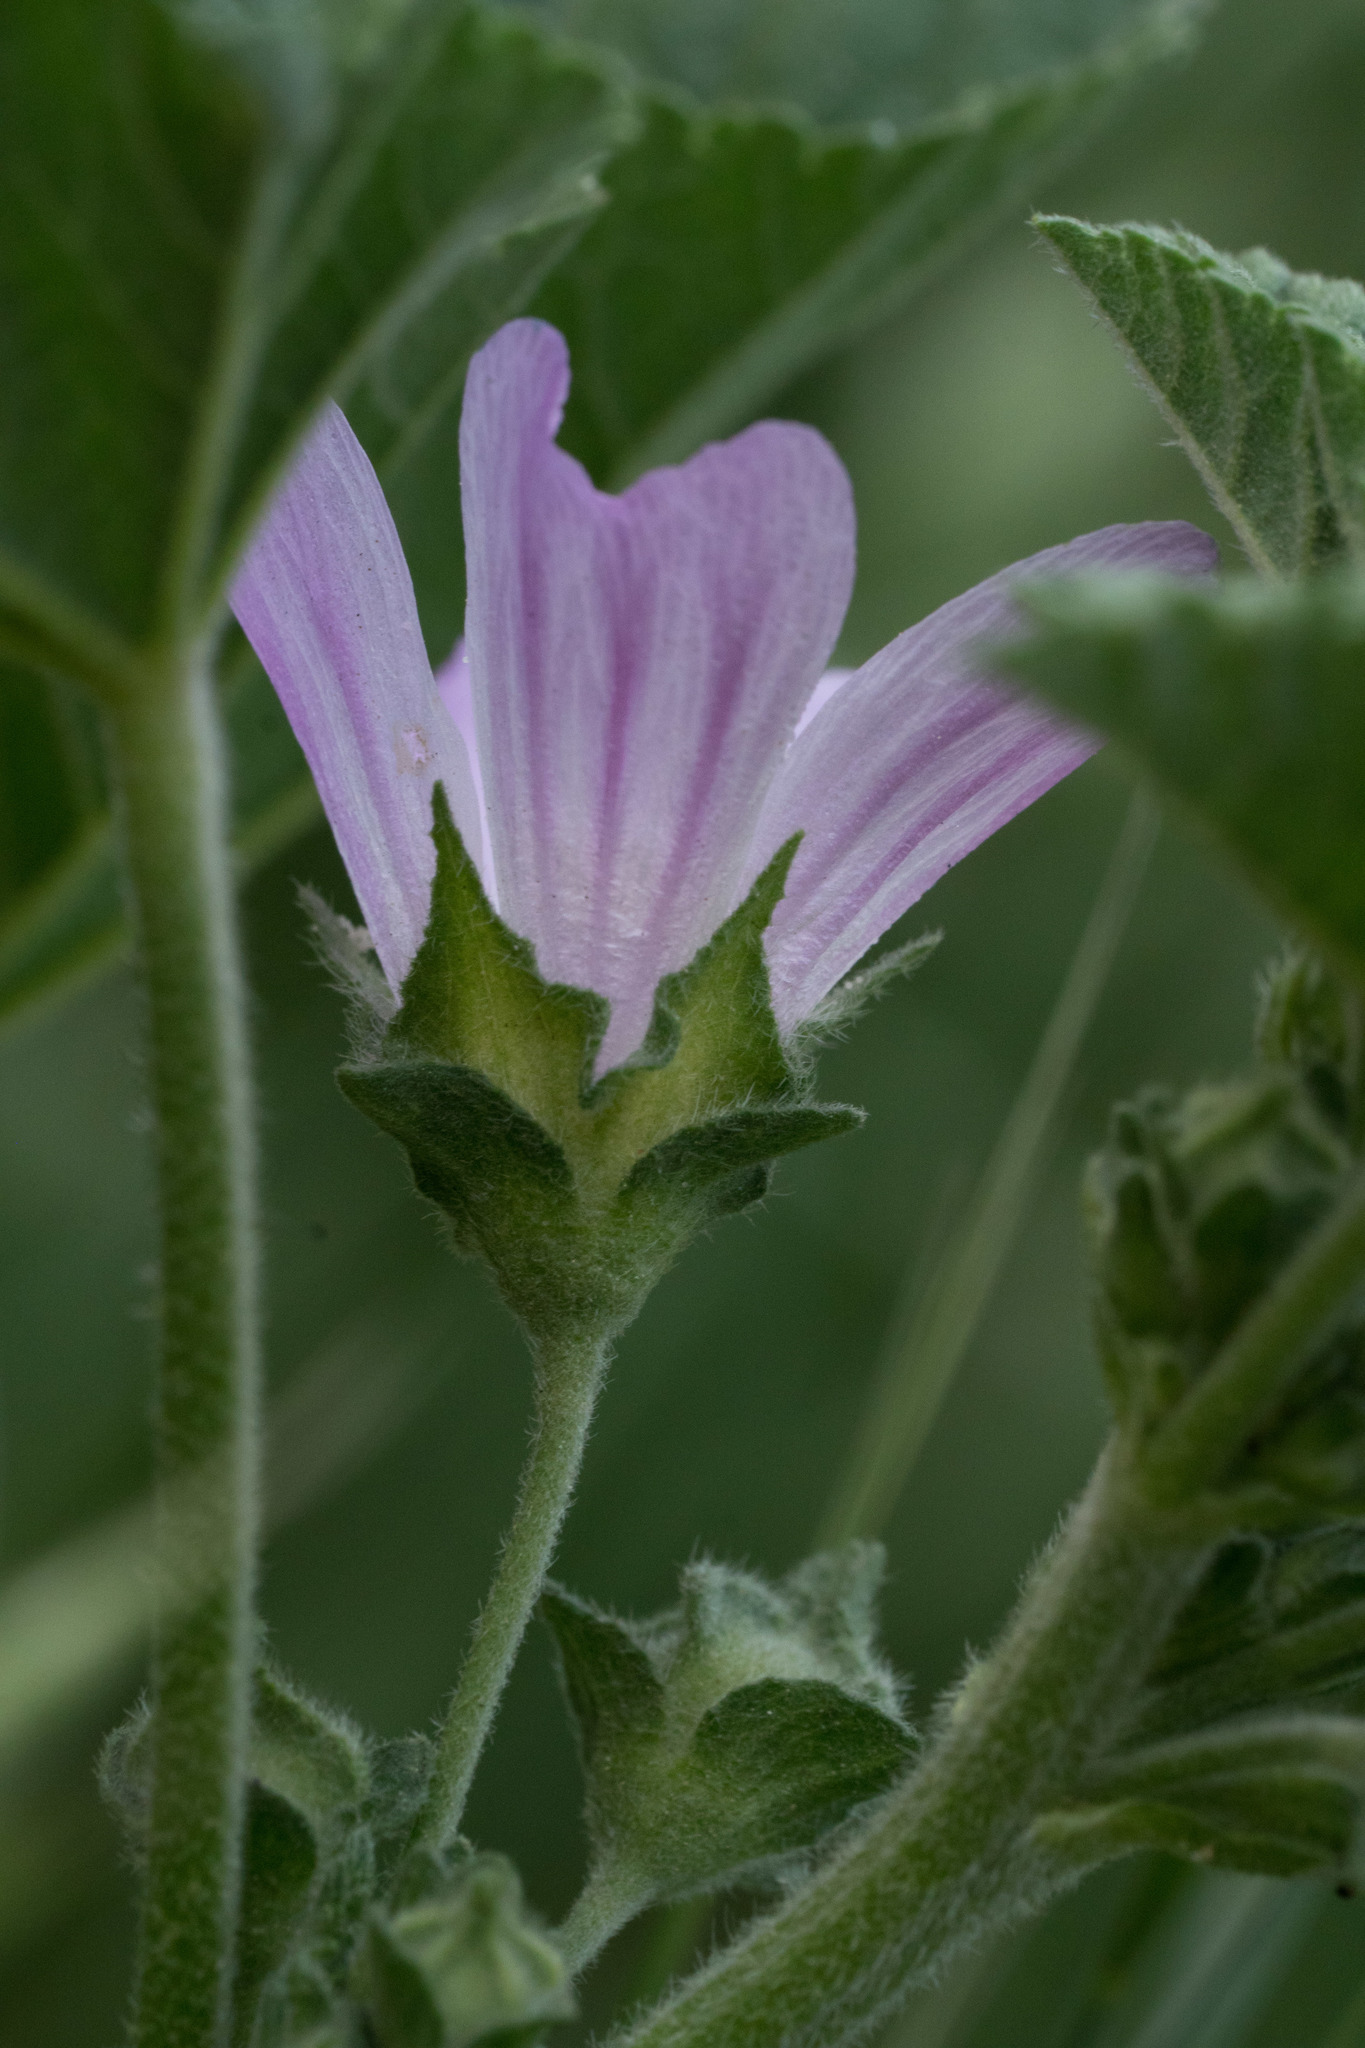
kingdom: Plantae
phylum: Tracheophyta
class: Magnoliopsida
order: Malvales
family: Malvaceae
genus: Malva
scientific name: Malva multiflora
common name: Cheeseweed
